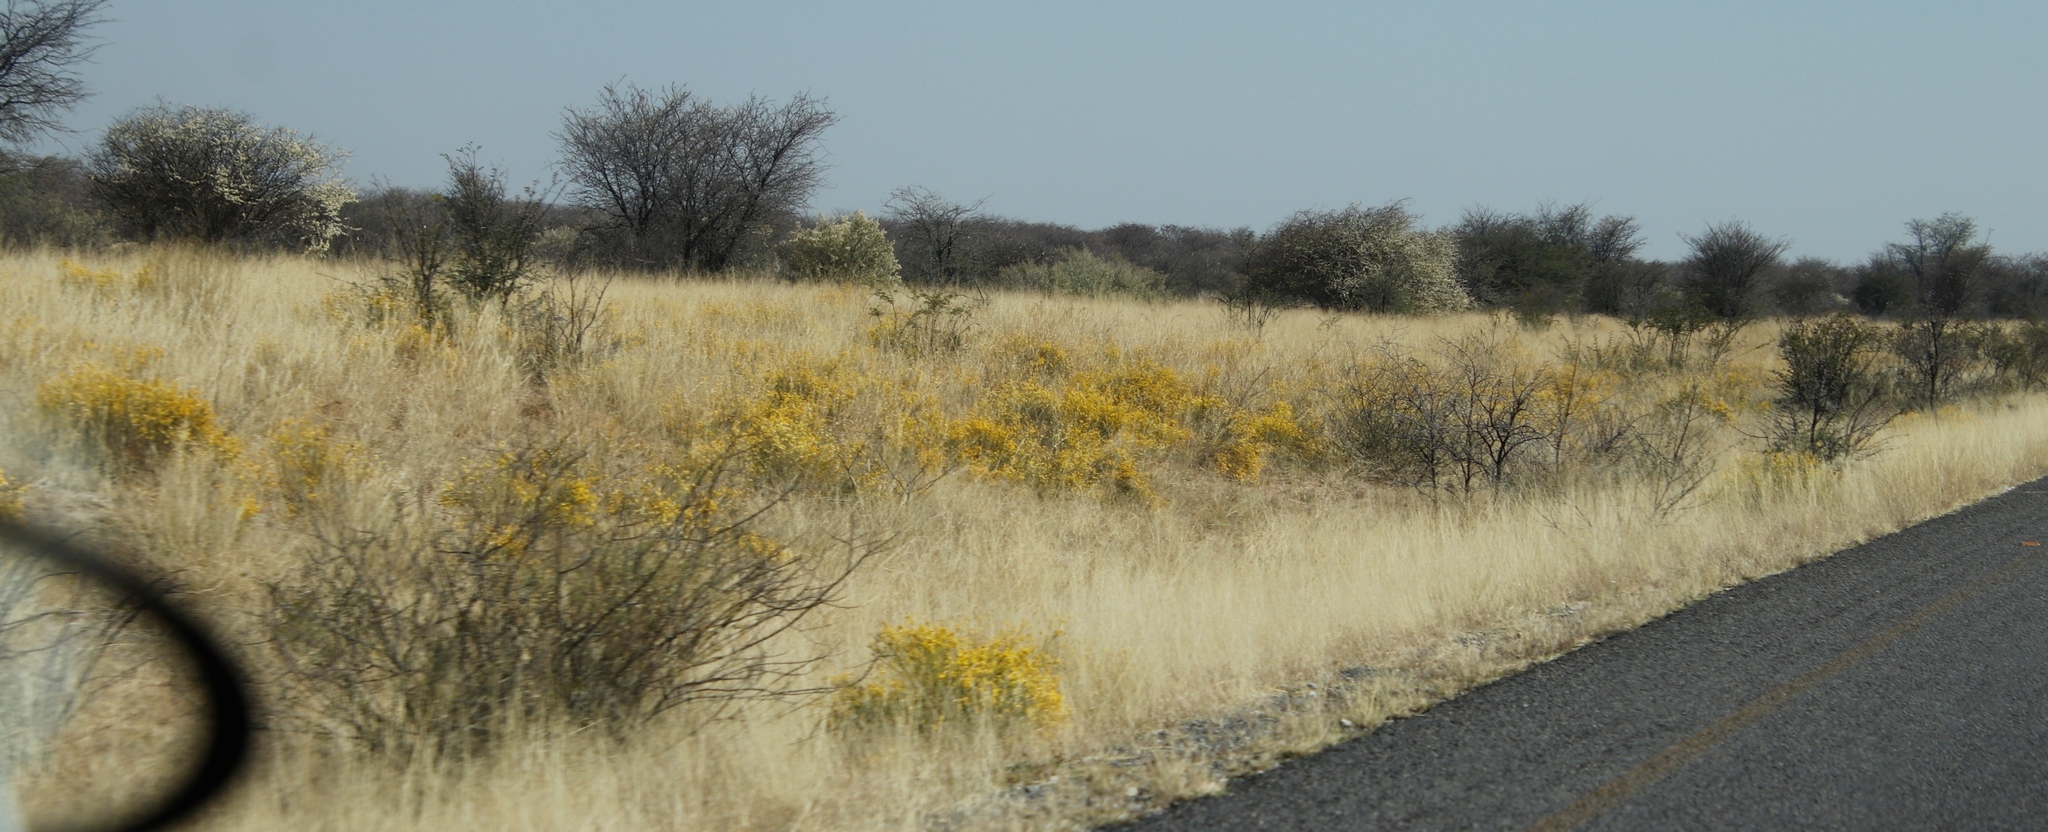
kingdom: Plantae
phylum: Tracheophyta
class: Magnoliopsida
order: Malvales
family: Thymelaeaceae
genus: Gnidia
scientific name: Gnidia polycephala
